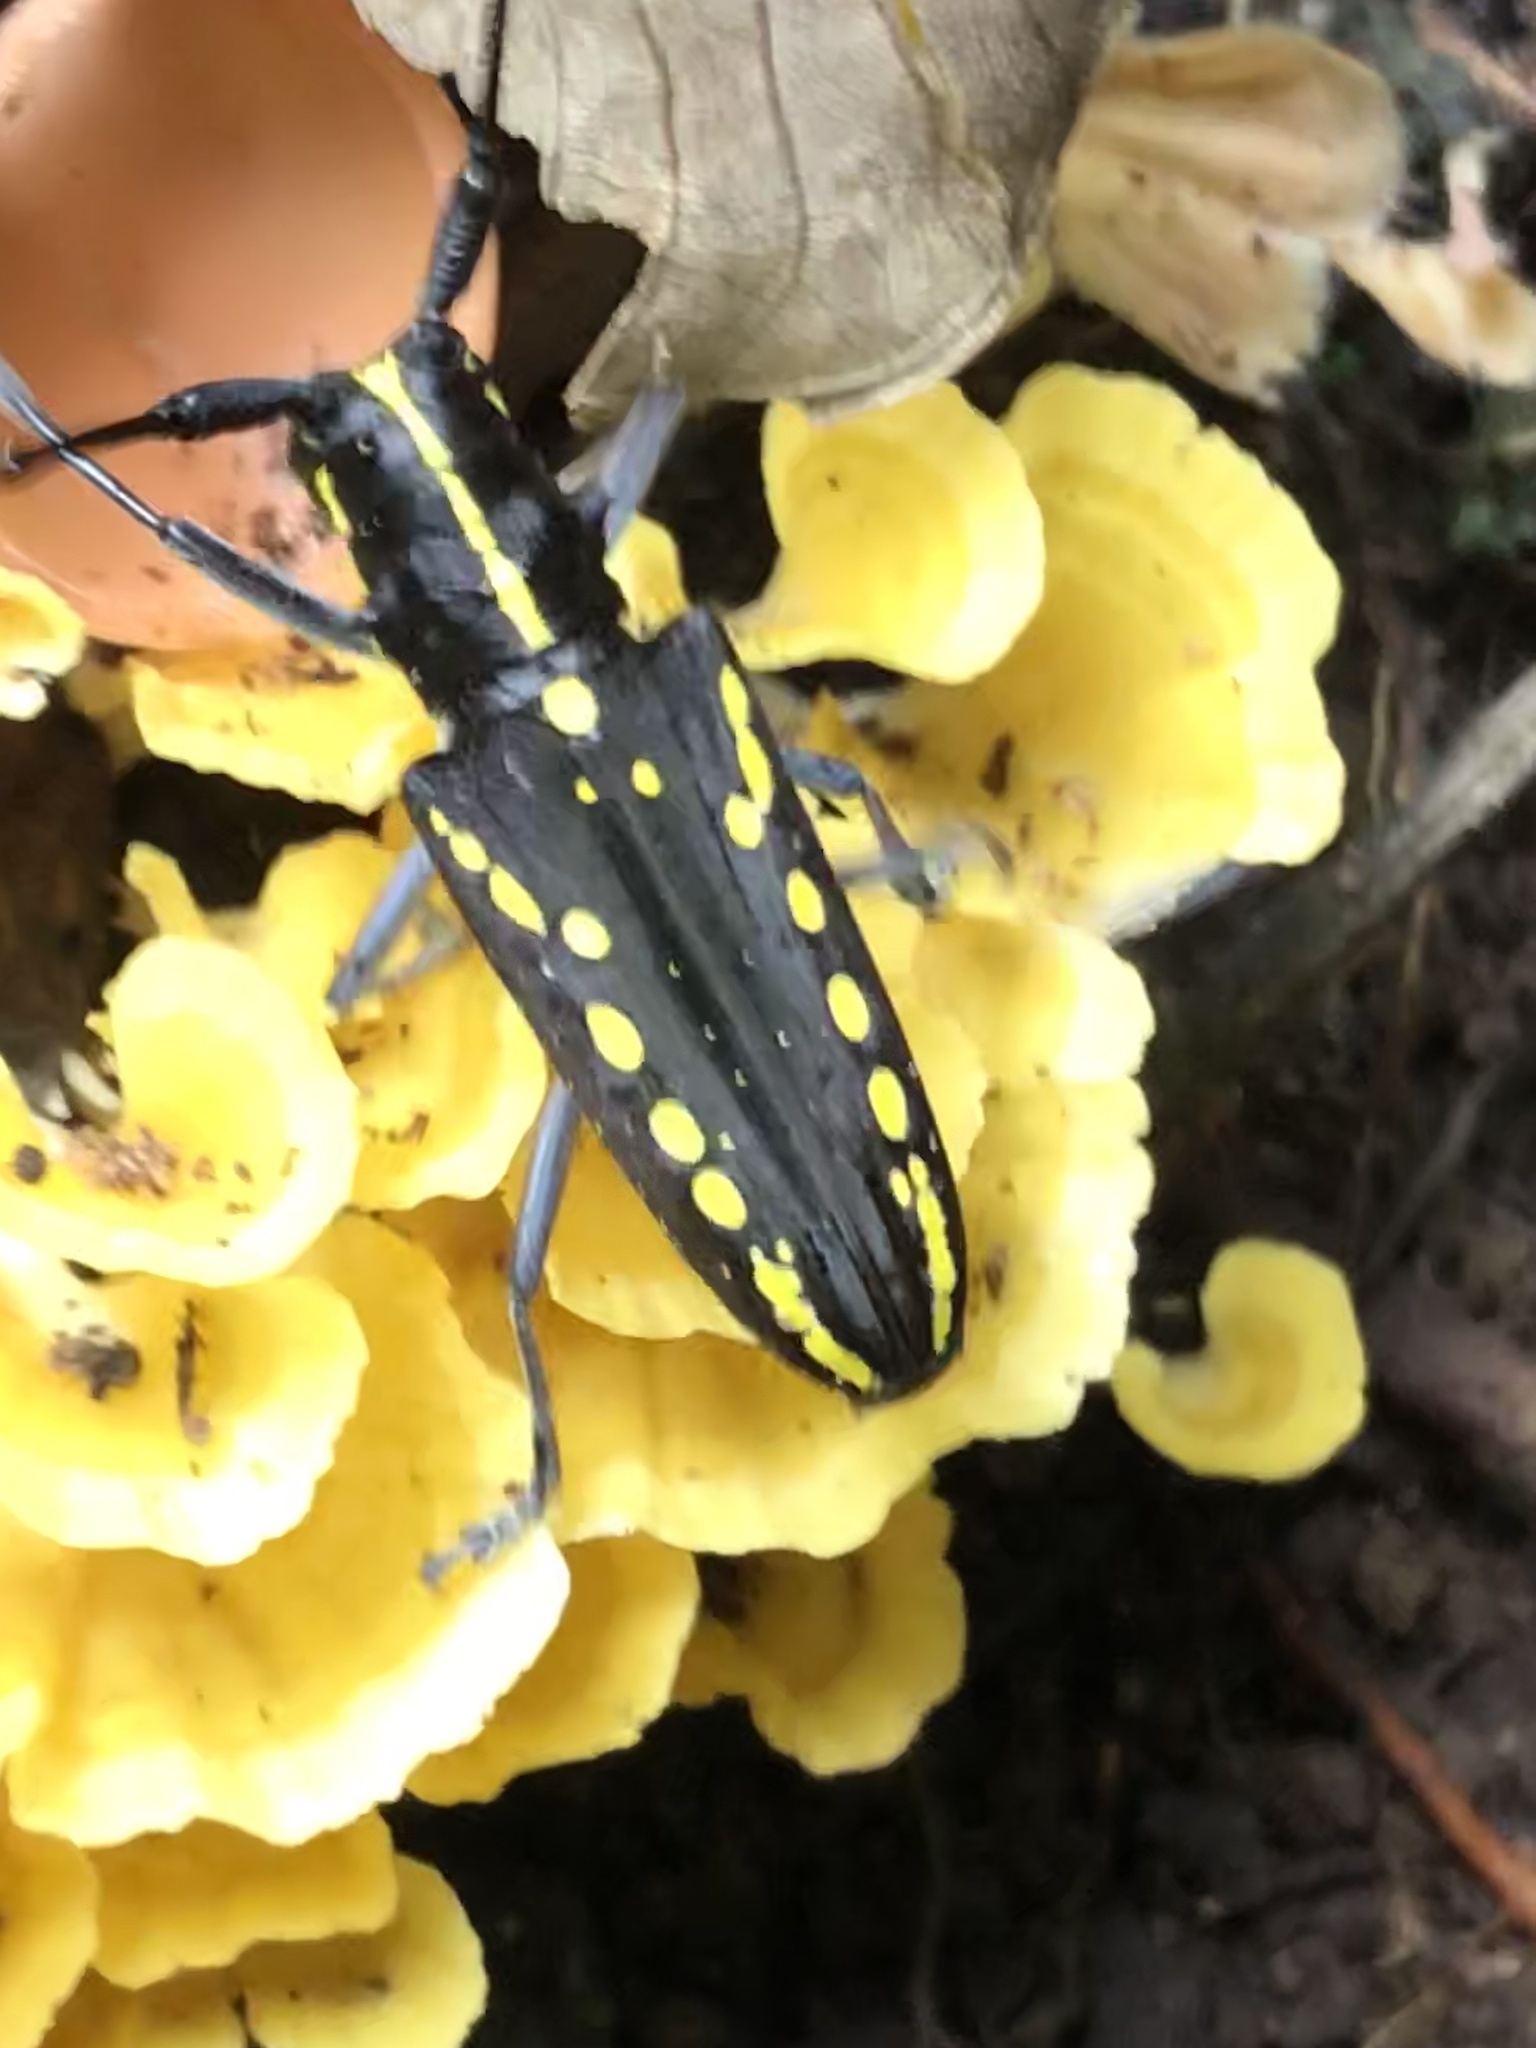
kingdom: Animalia
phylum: Arthropoda
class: Insecta
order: Coleoptera
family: Cerambycidae
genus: Taeniotes
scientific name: Taeniotes orbignyi
